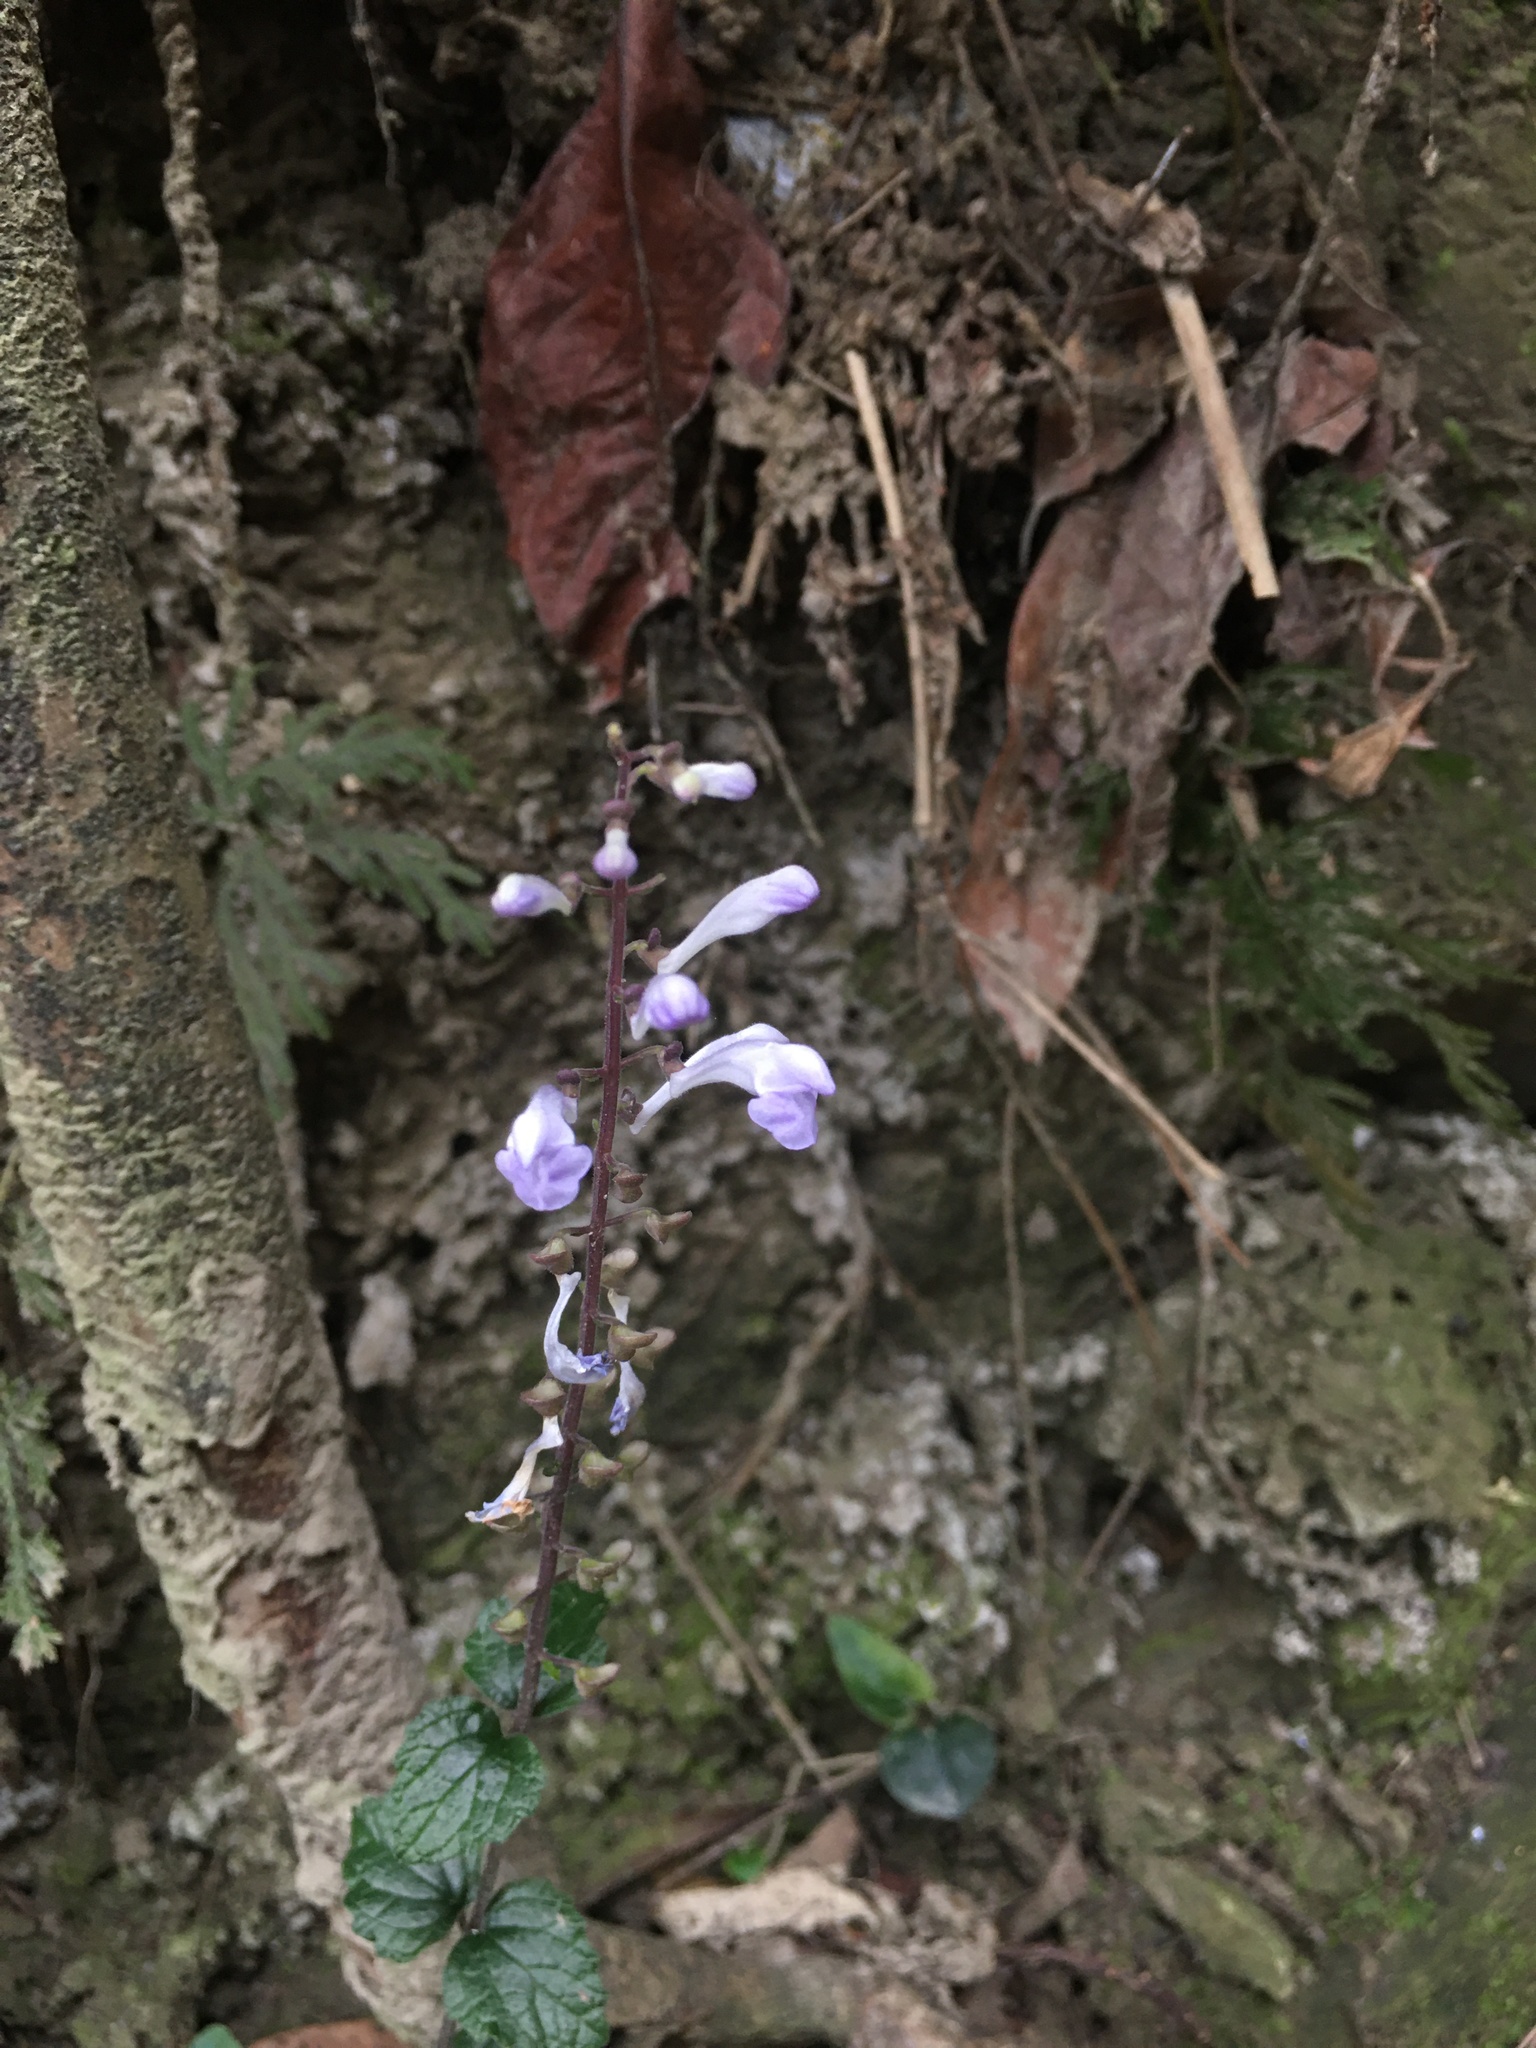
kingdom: Plantae
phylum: Tracheophyta
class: Magnoliopsida
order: Lamiales
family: Lamiaceae
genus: Scutellaria
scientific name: Scutellaria playfairii
